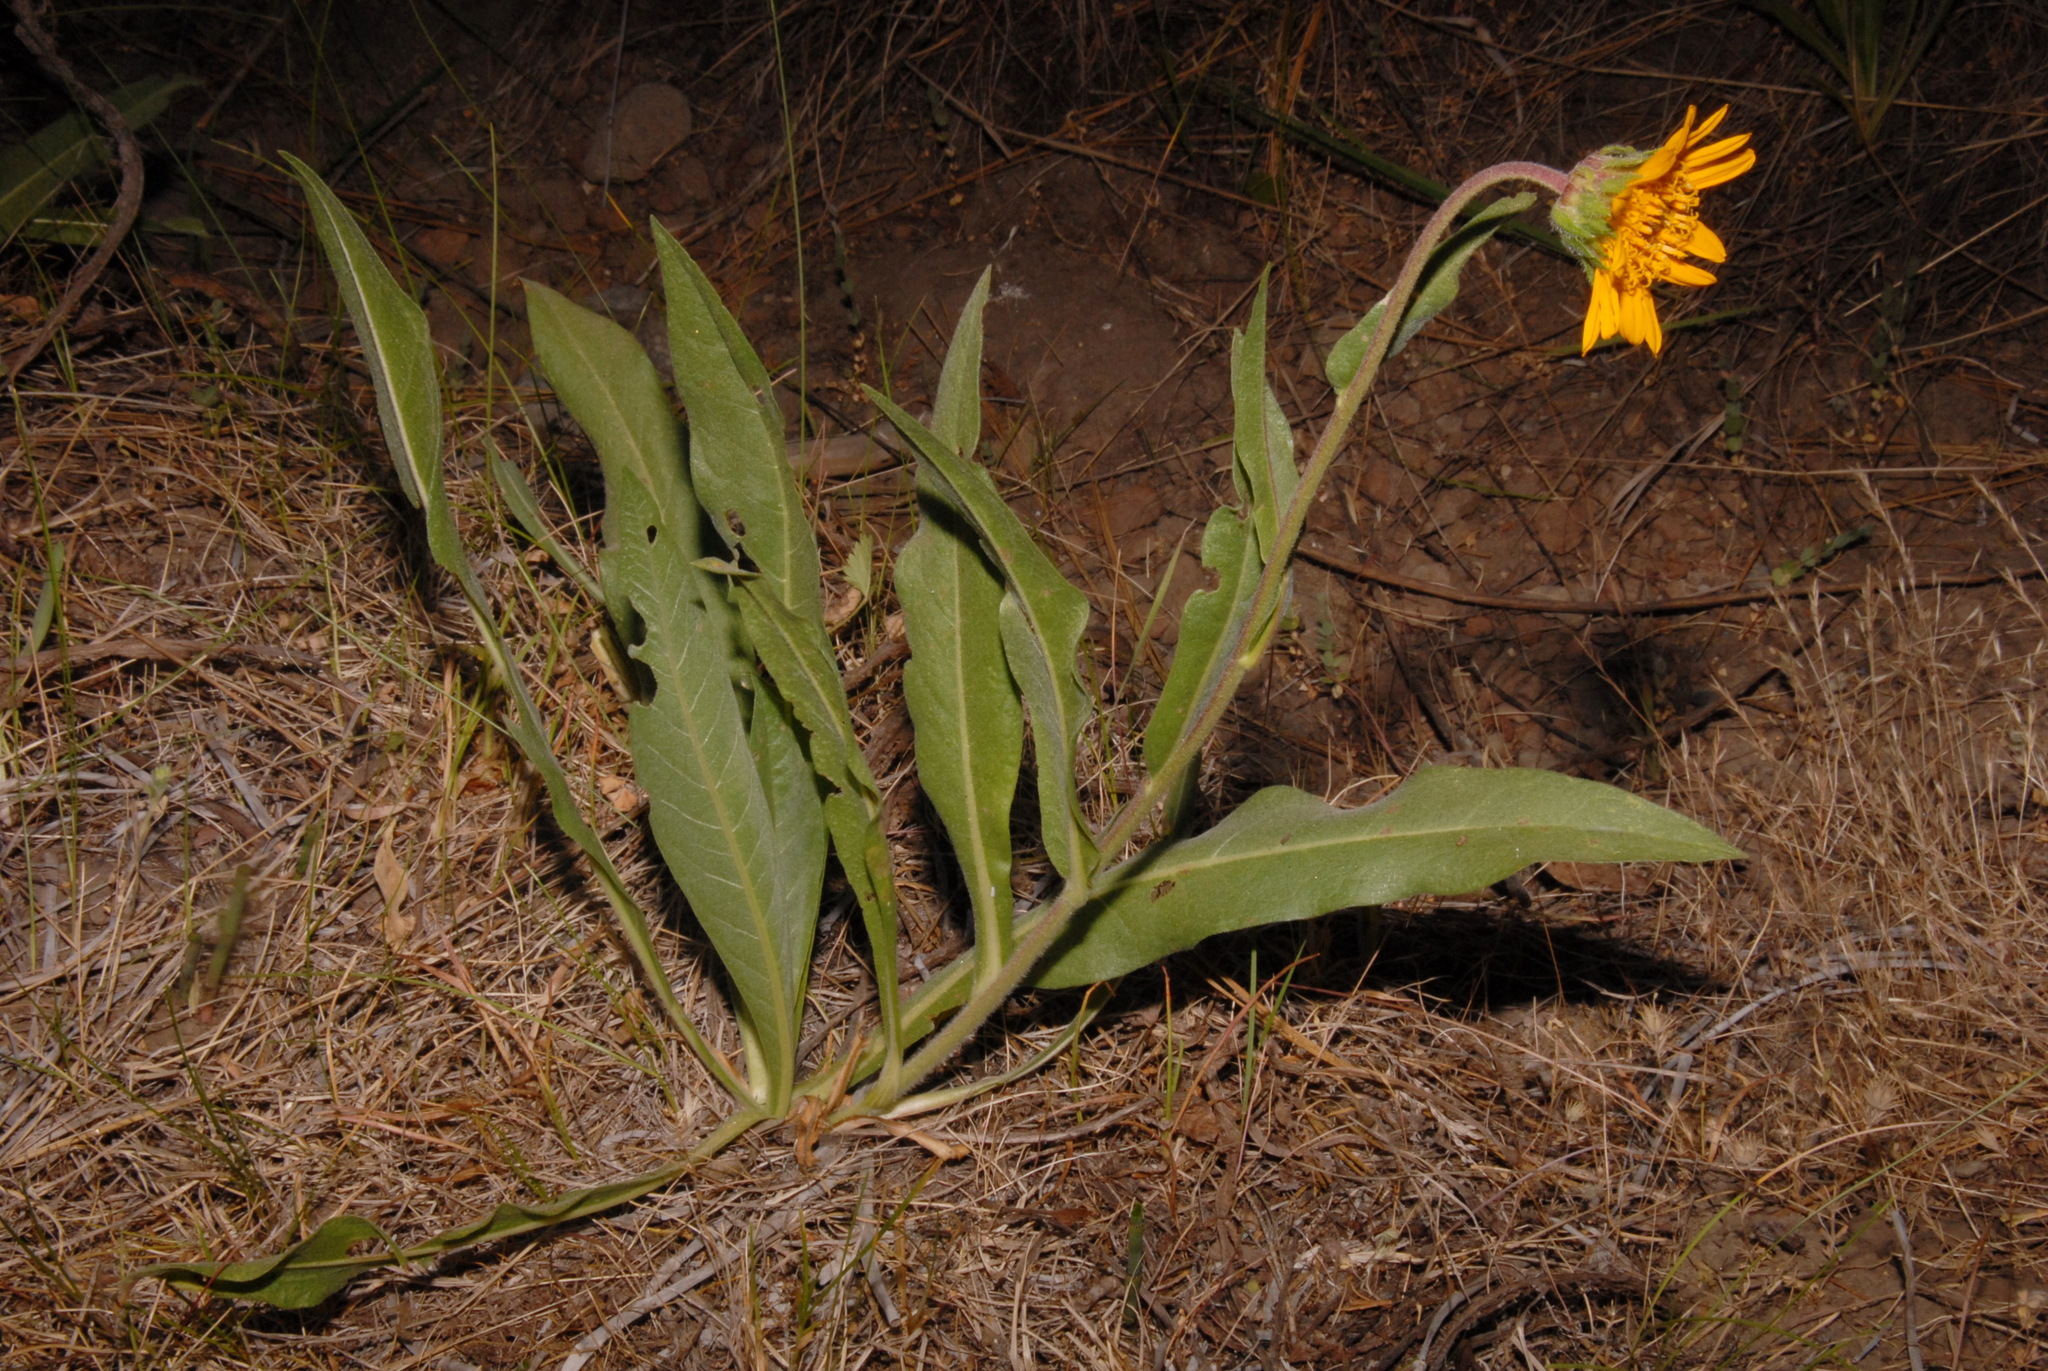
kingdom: Plantae
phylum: Tracheophyta
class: Magnoliopsida
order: Asterales
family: Asteraceae
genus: Wyethia
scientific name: Wyethia angustifolia
